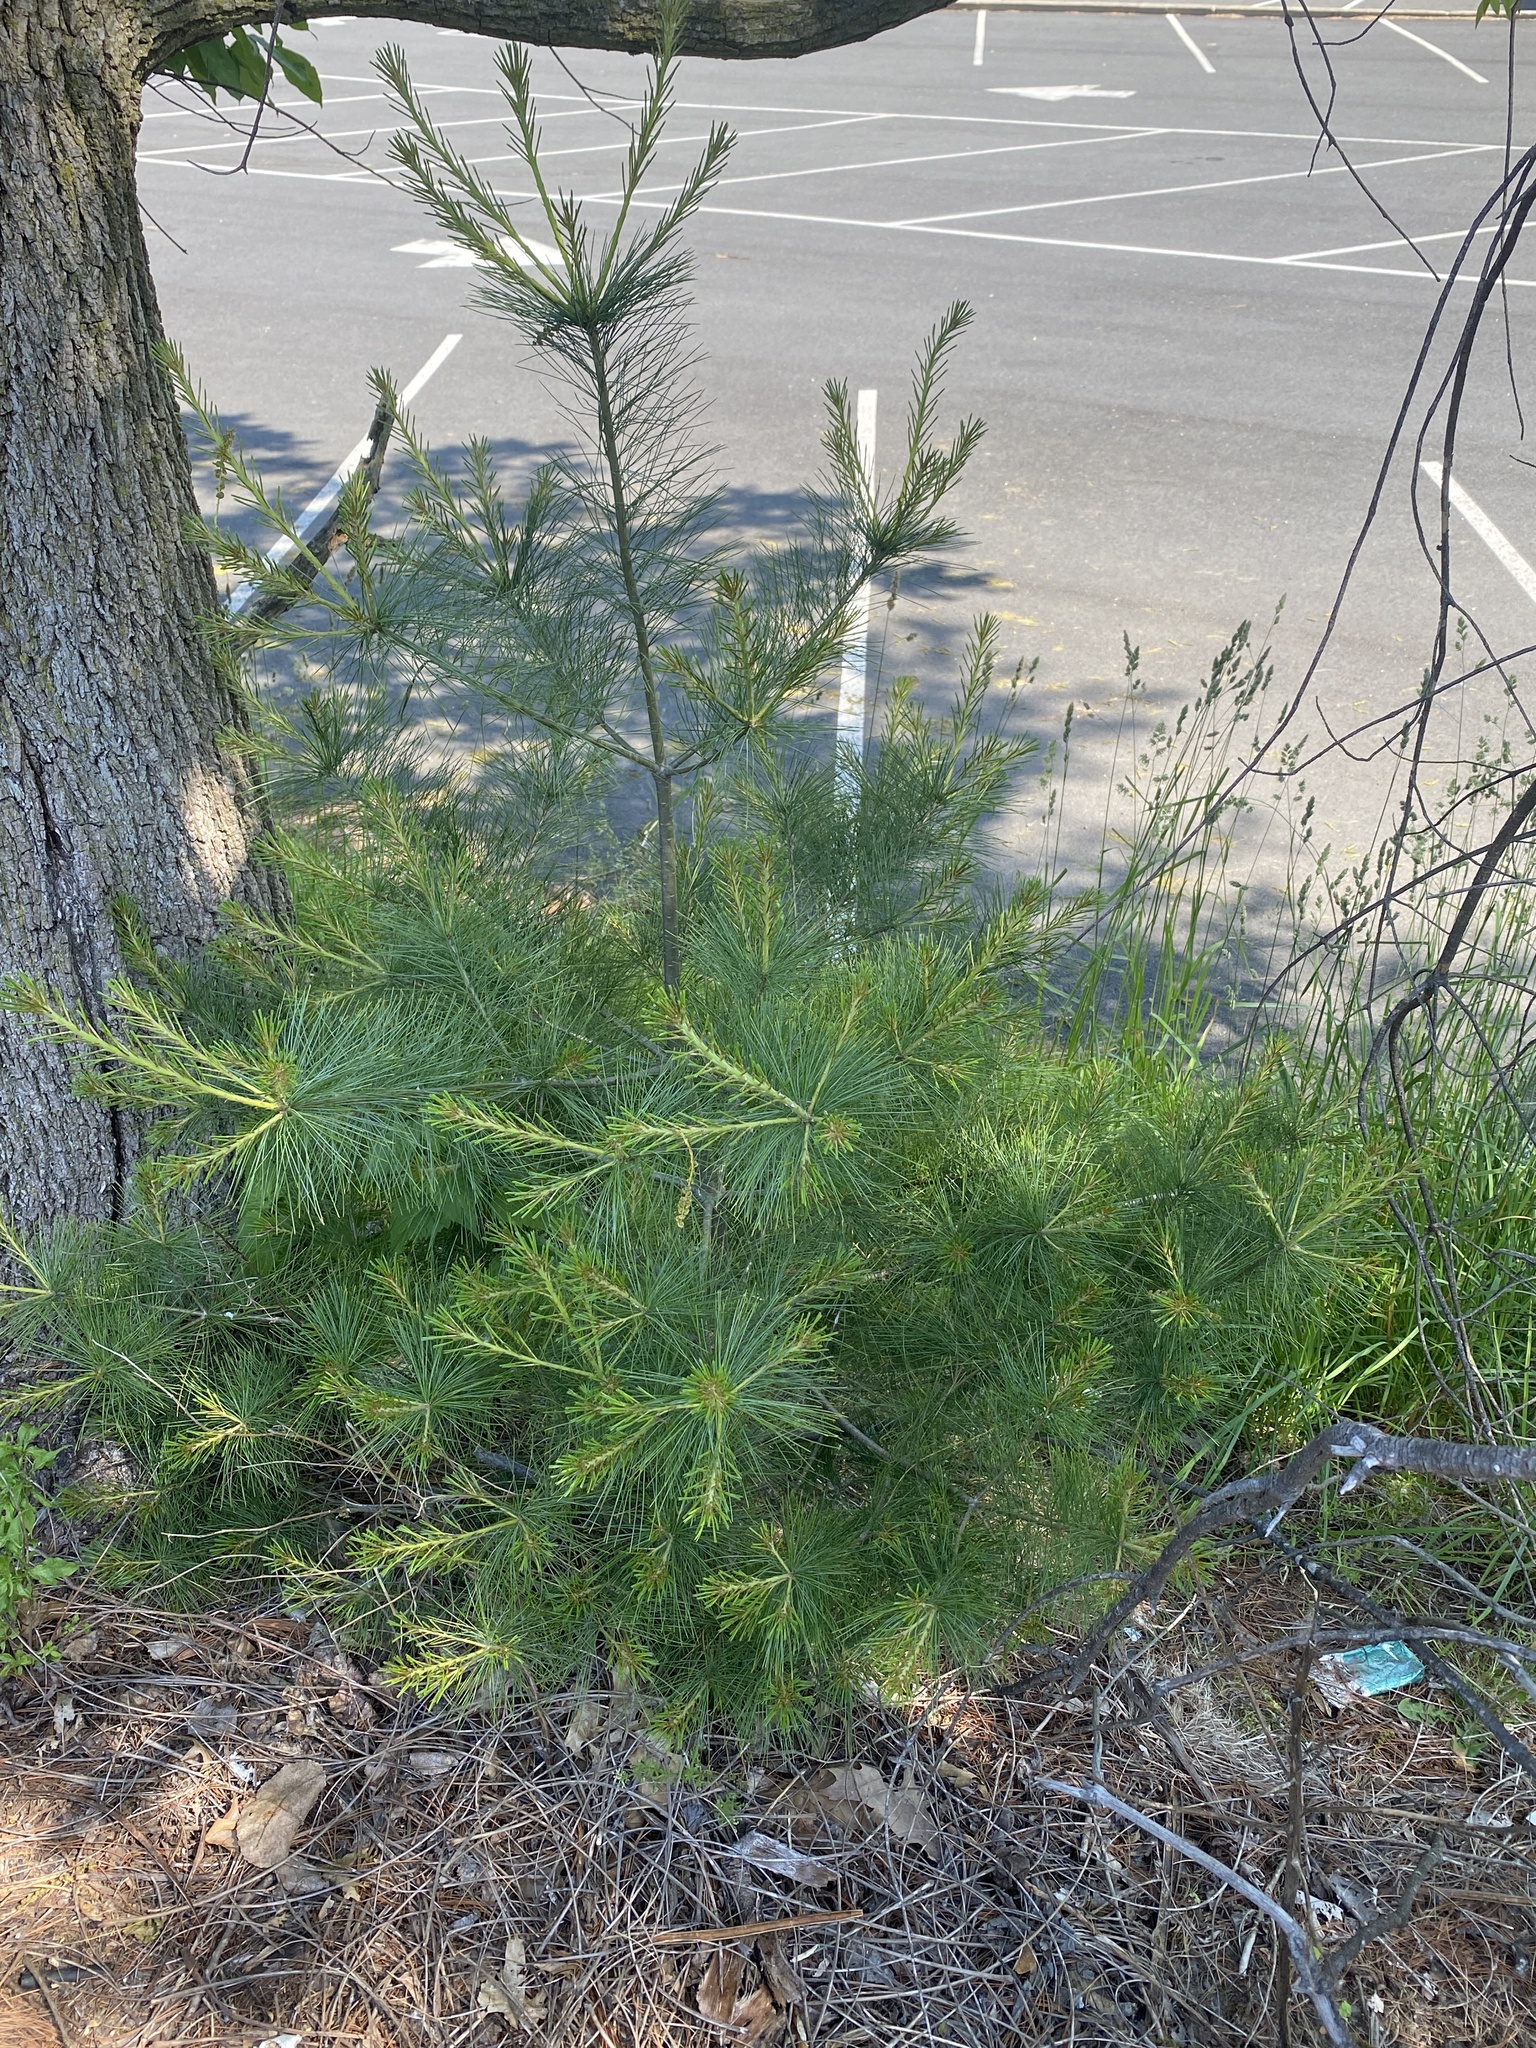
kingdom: Plantae
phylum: Tracheophyta
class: Pinopsida
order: Pinales
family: Pinaceae
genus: Pinus
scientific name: Pinus strobus
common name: Weymouth pine
